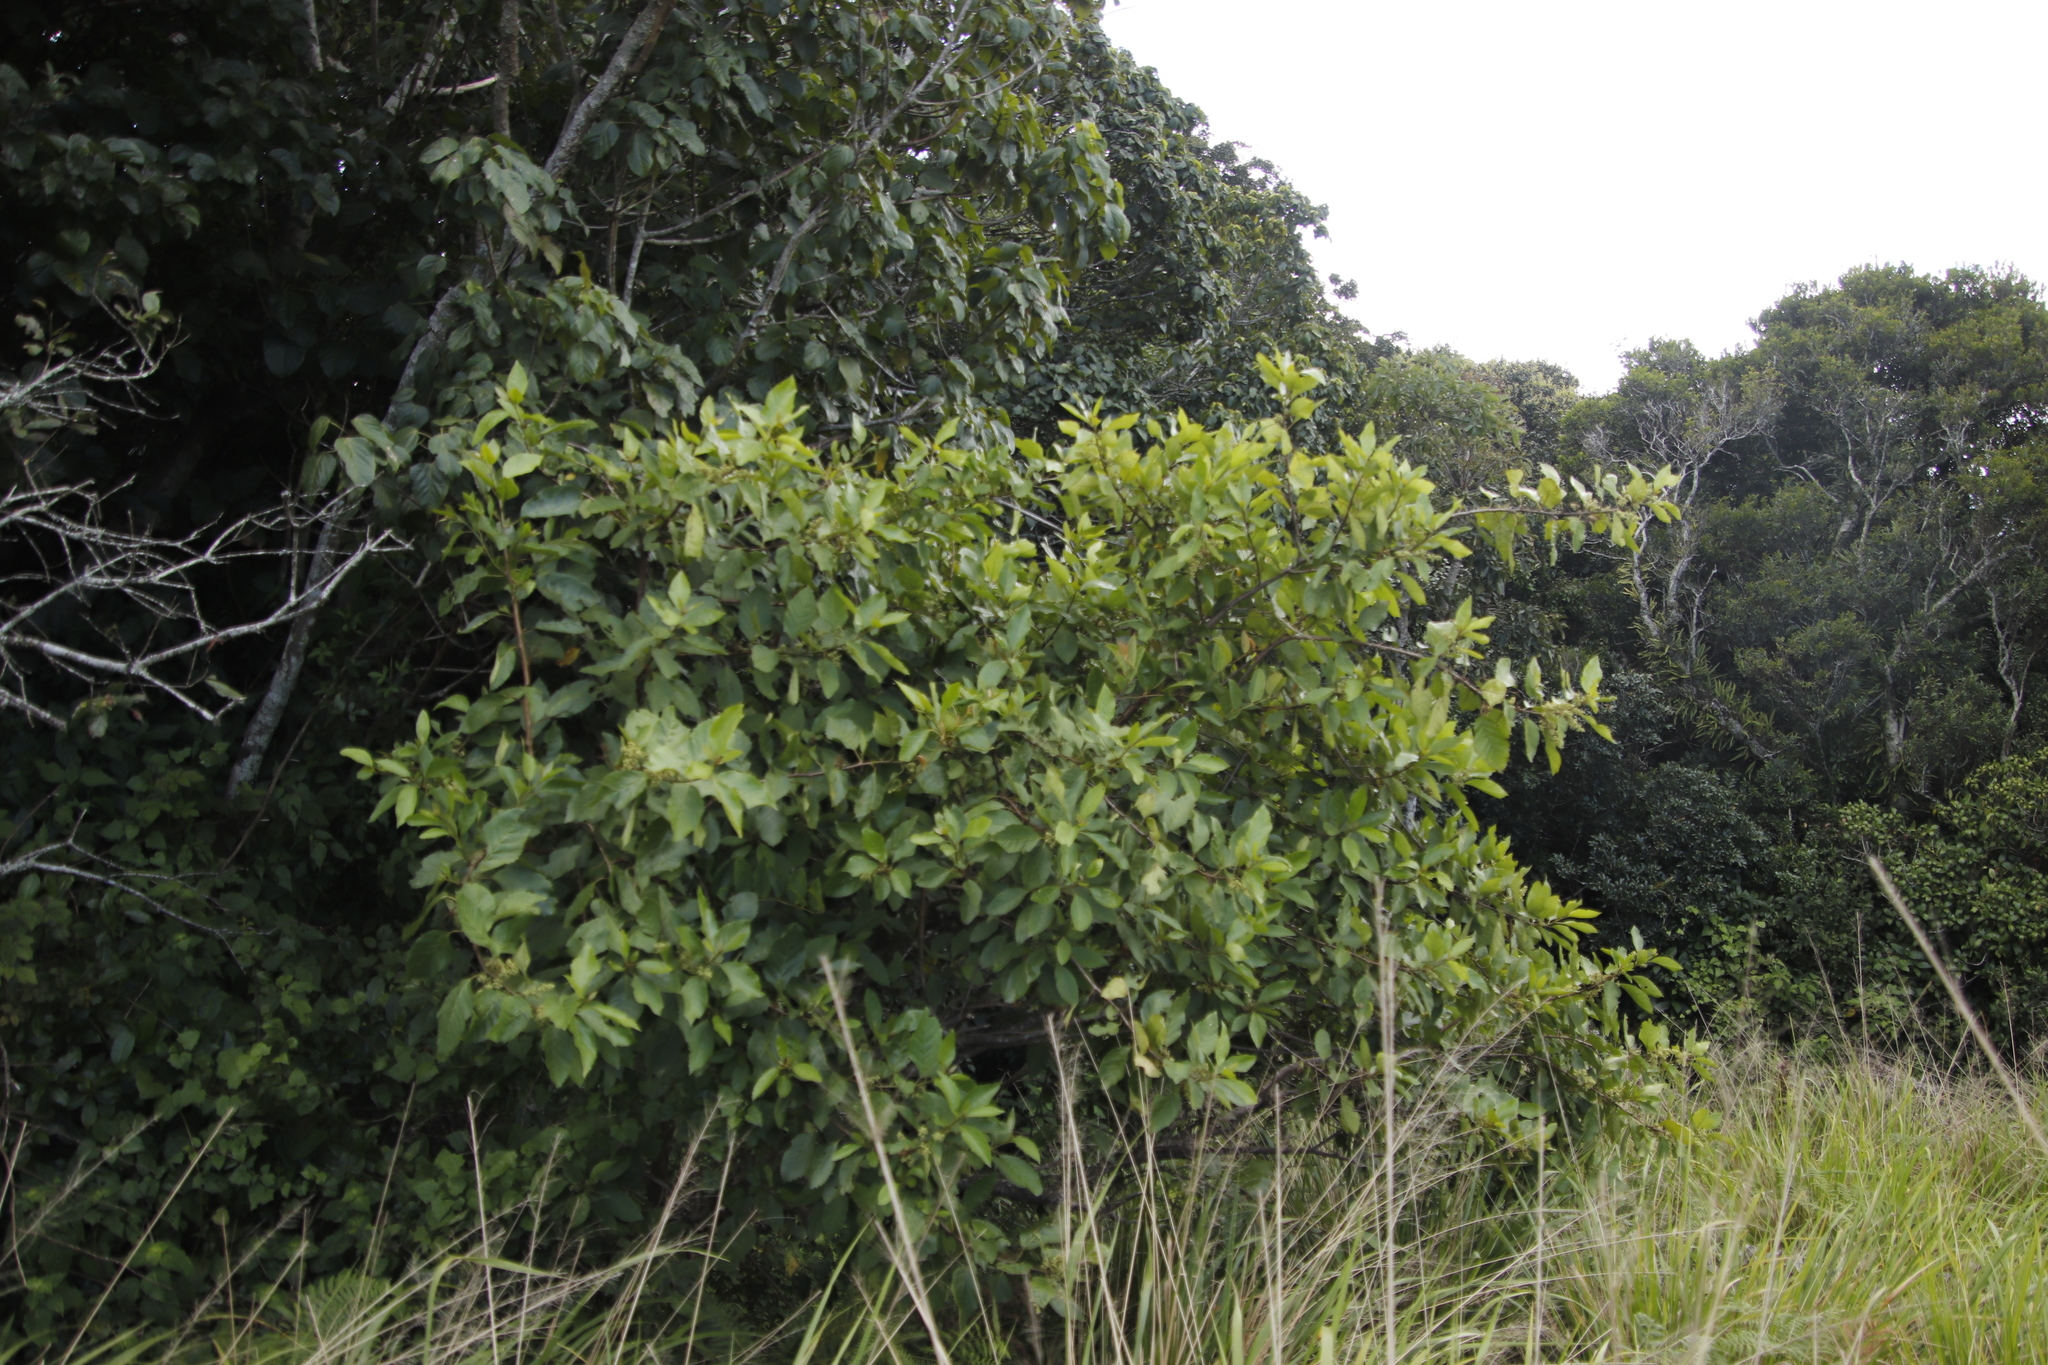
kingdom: Plantae
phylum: Tracheophyta
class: Magnoliopsida
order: Ericales
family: Primulaceae
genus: Maesa
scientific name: Maesa lanceolata
